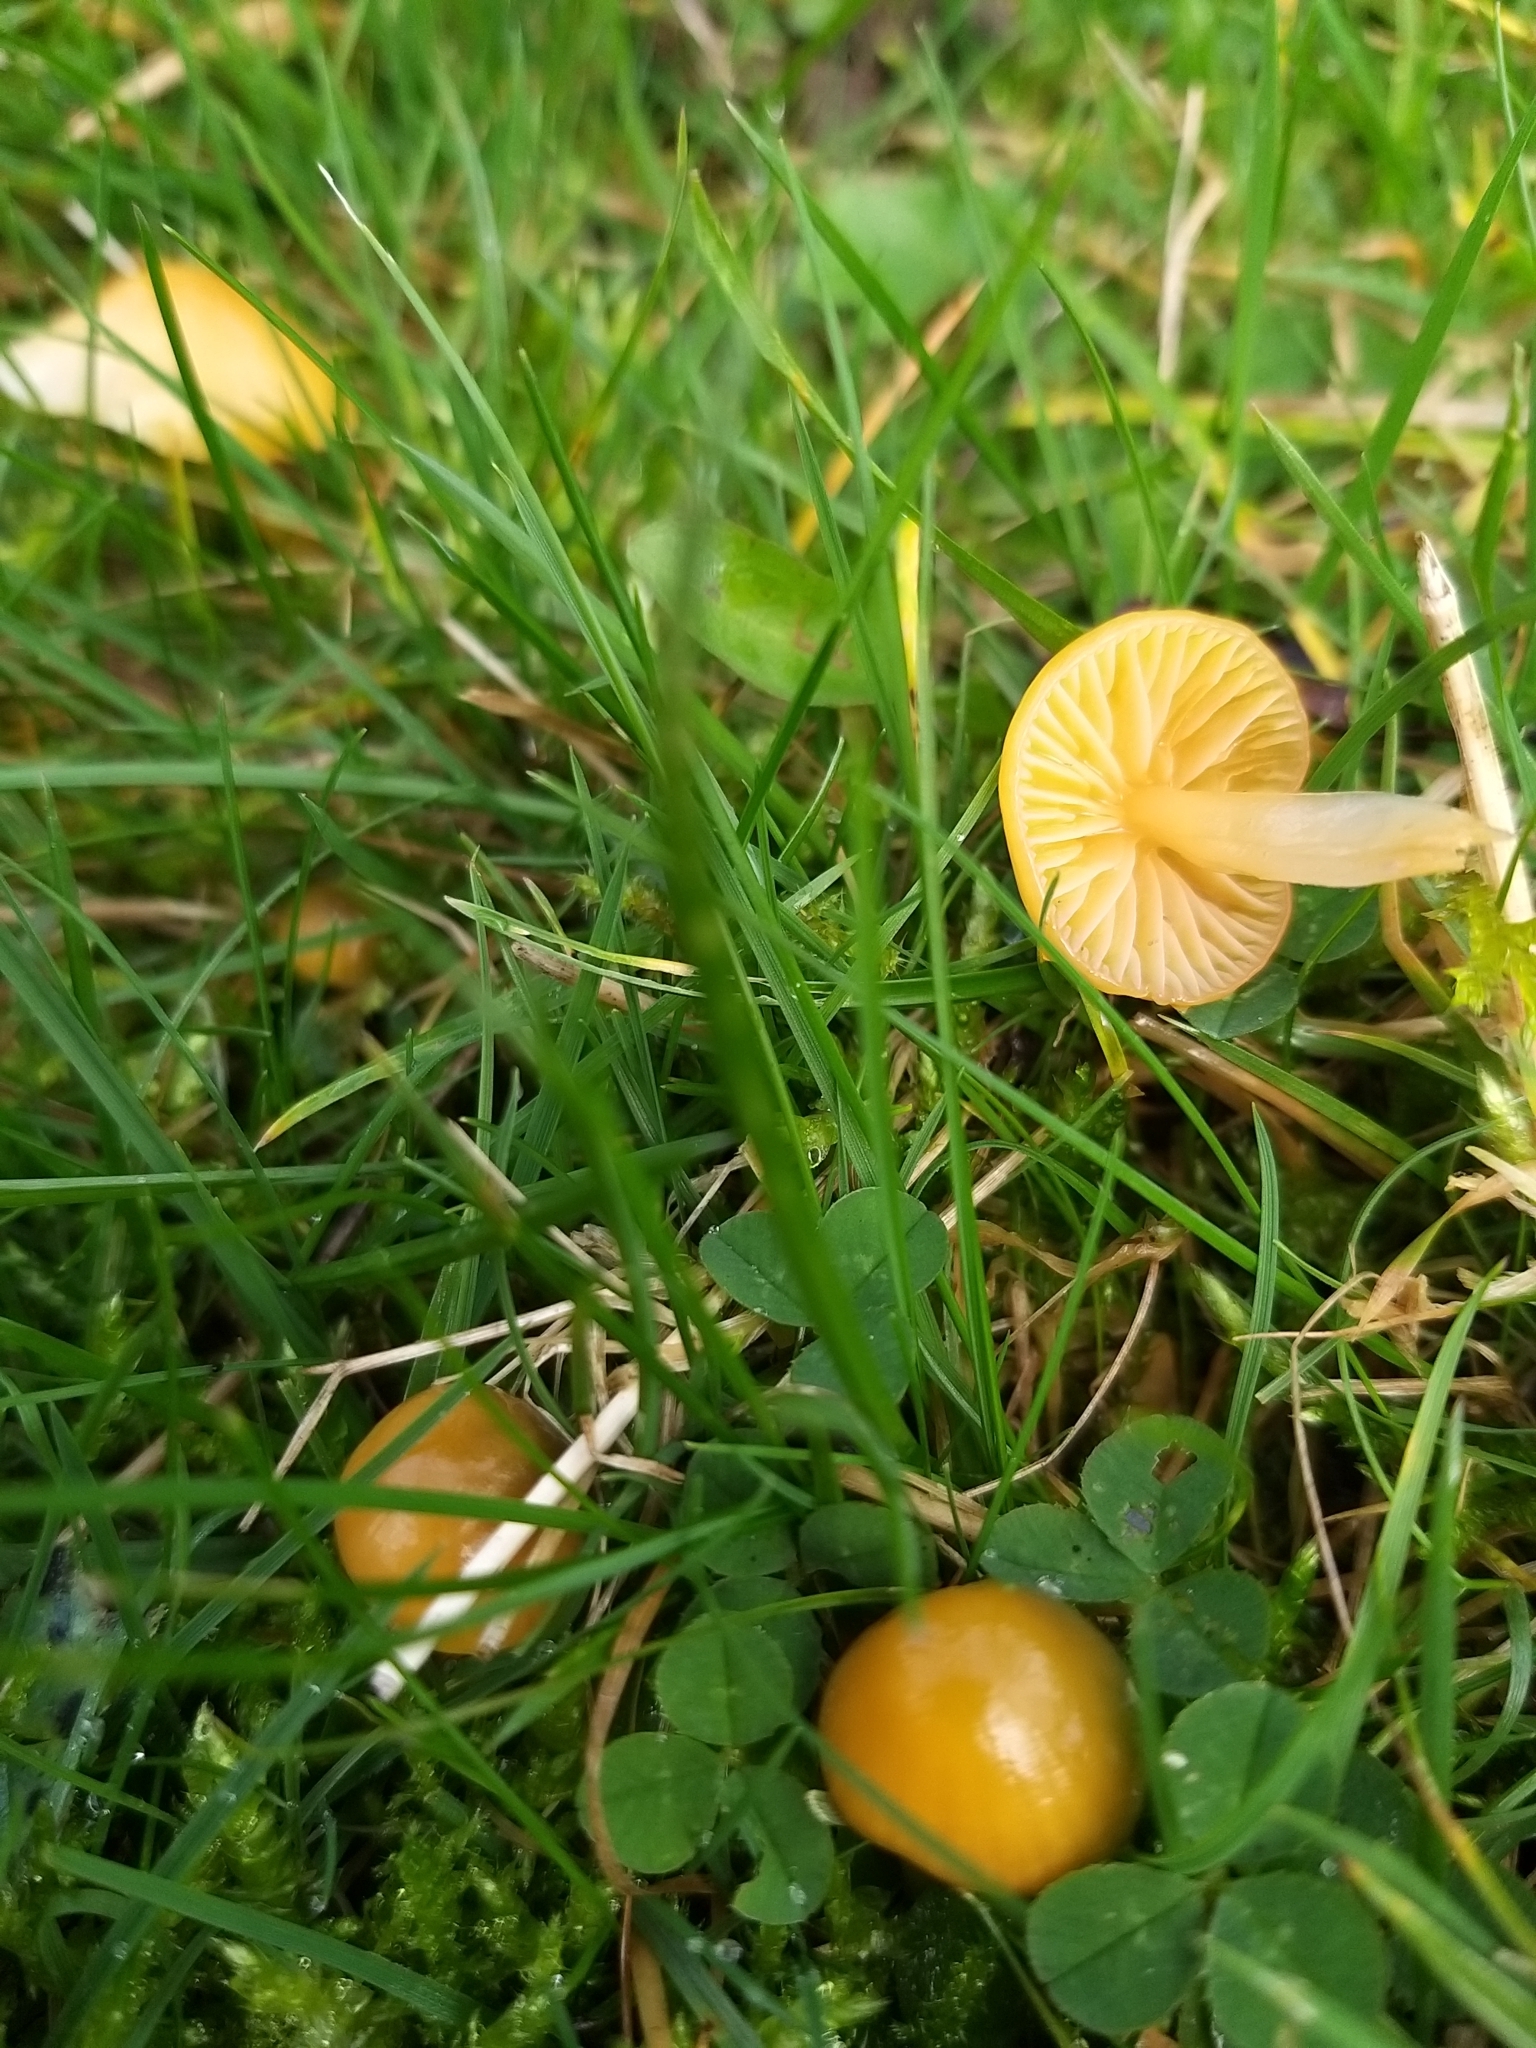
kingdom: Fungi
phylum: Basidiomycota
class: Agaricomycetes
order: Agaricales
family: Hygrophoraceae
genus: Gliophorus
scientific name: Gliophorus psittacinus
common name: Parrot wax-cap
